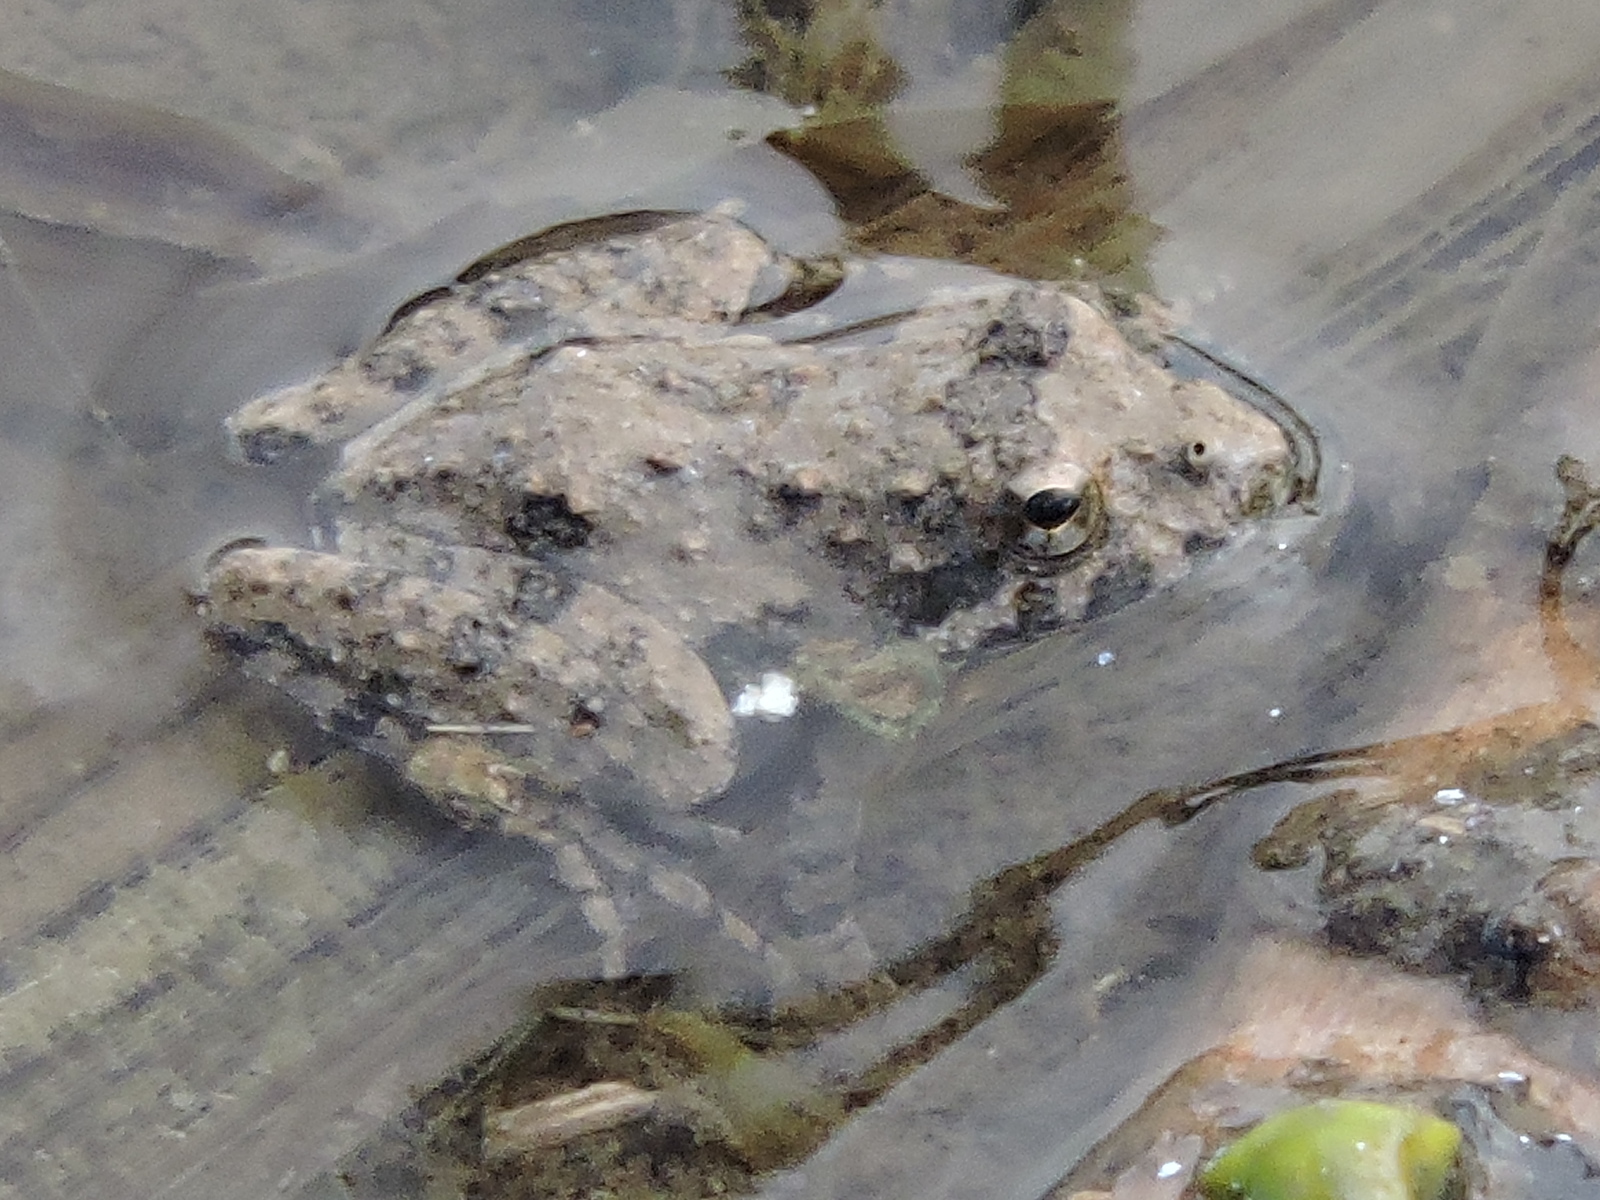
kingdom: Animalia
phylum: Chordata
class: Amphibia
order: Anura
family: Hylidae
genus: Acris
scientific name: Acris blanchardi
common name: Blanchard's cricket frog
